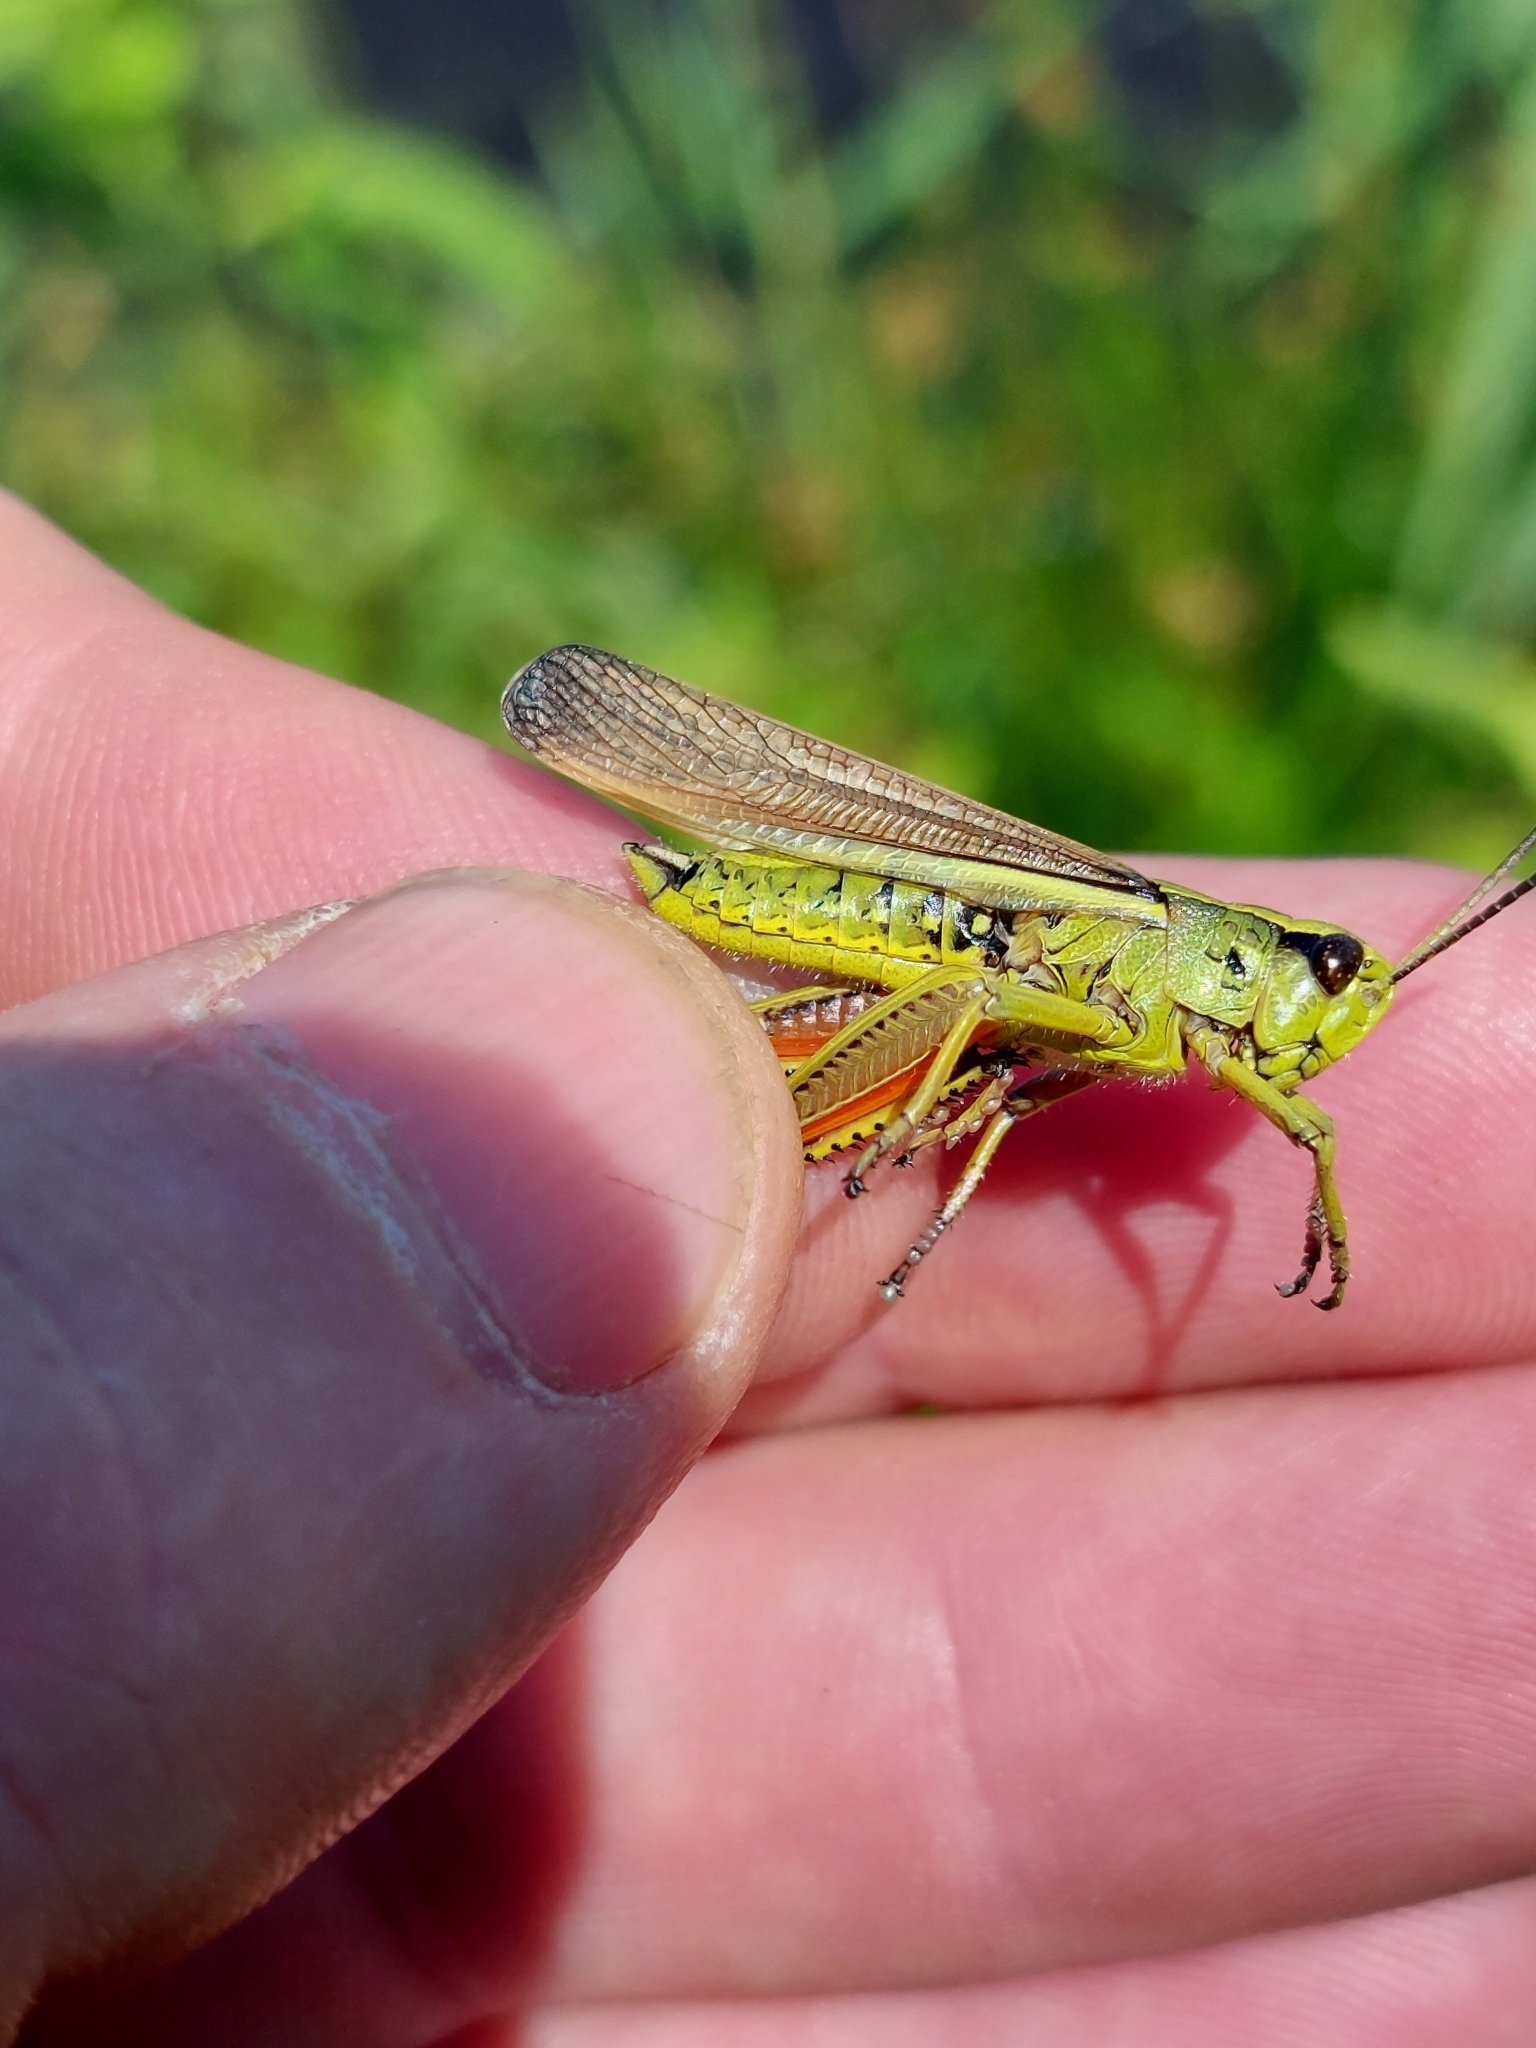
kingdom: Animalia
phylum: Arthropoda
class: Insecta
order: Orthoptera
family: Acrididae
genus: Stethophyma
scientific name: Stethophyma grossum
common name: Large marsh grasshopper
